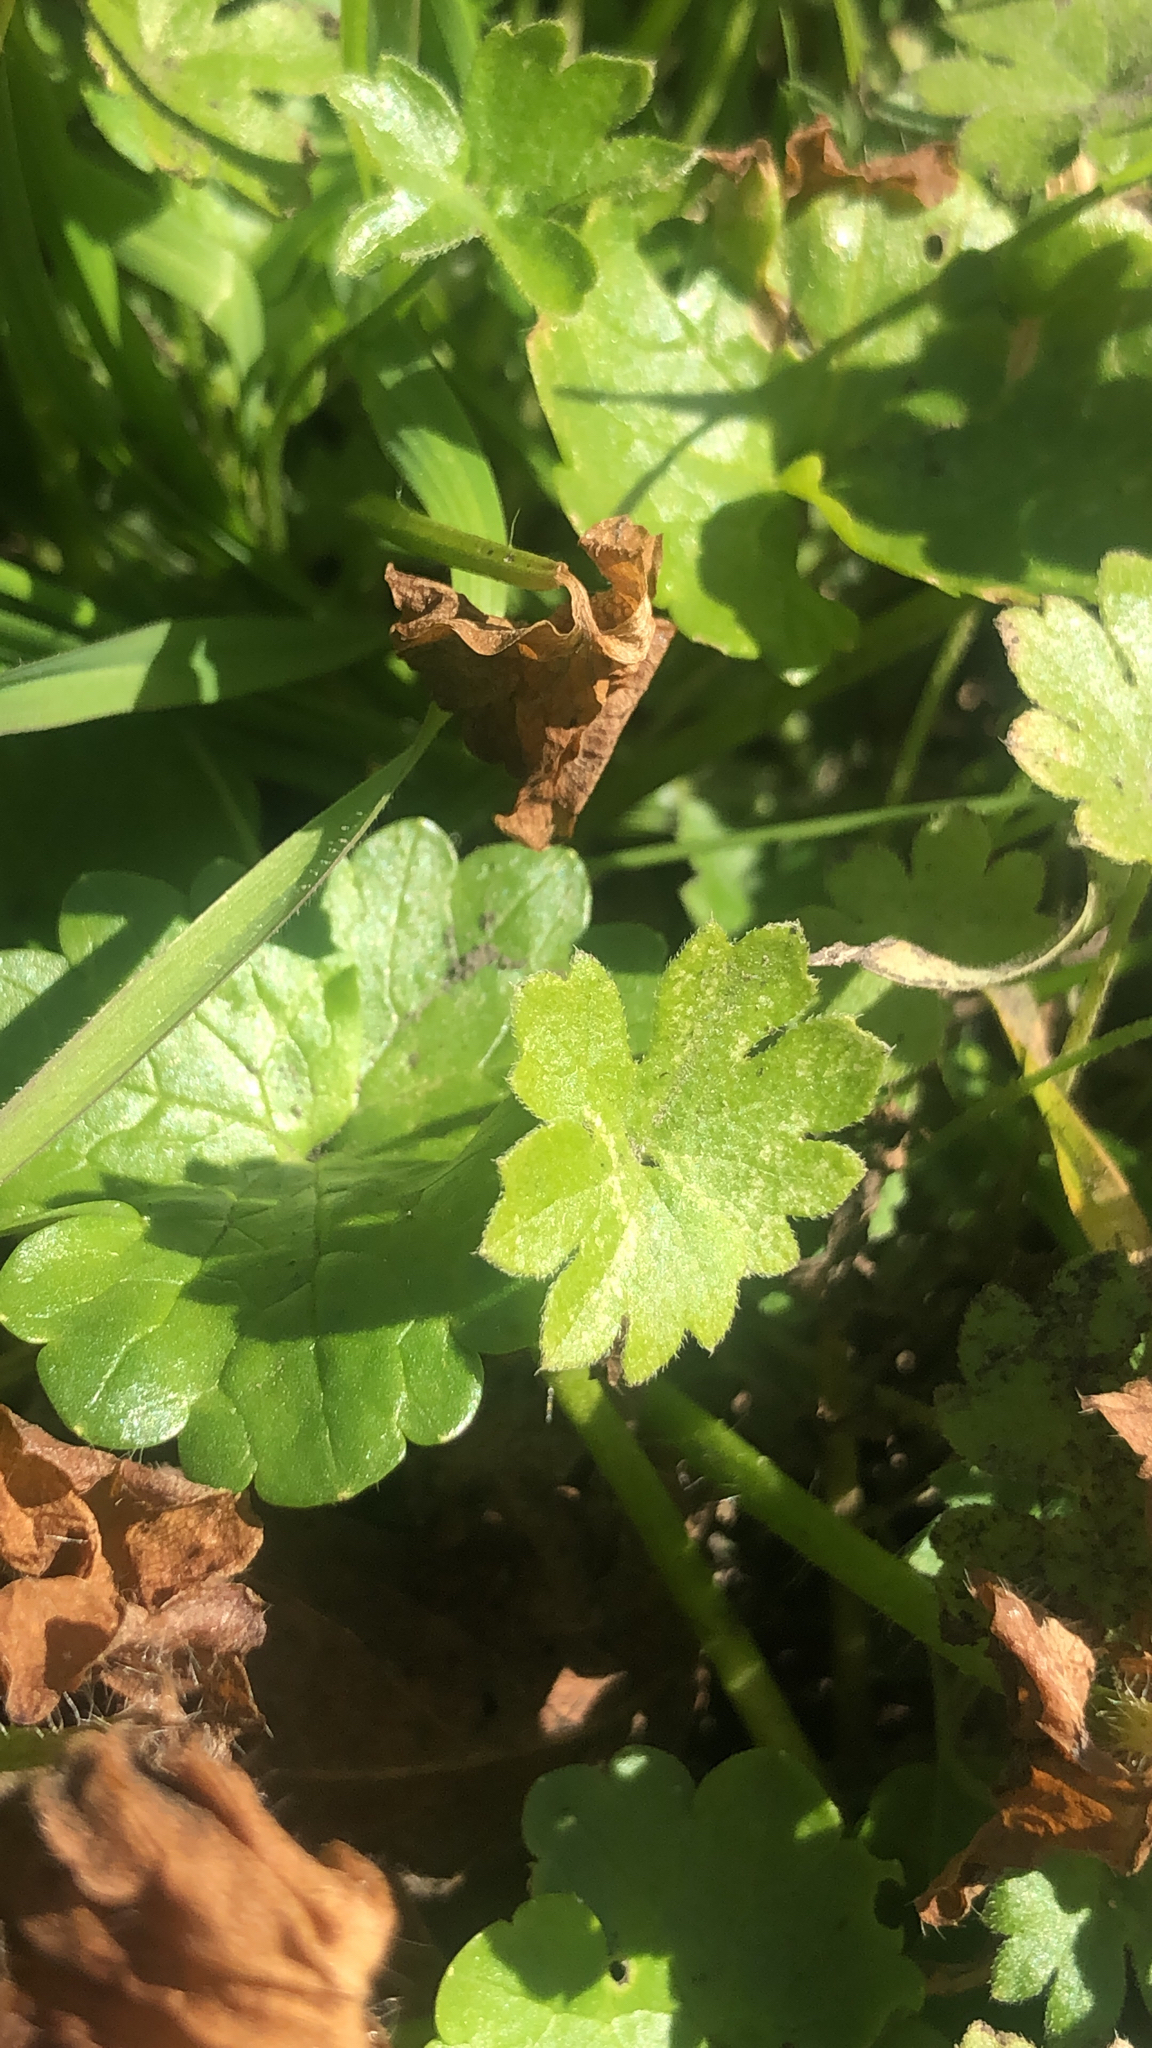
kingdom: Plantae
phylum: Tracheophyta
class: Magnoliopsida
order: Apiales
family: Apiaceae
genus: Bowlesia
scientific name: Bowlesia incana
